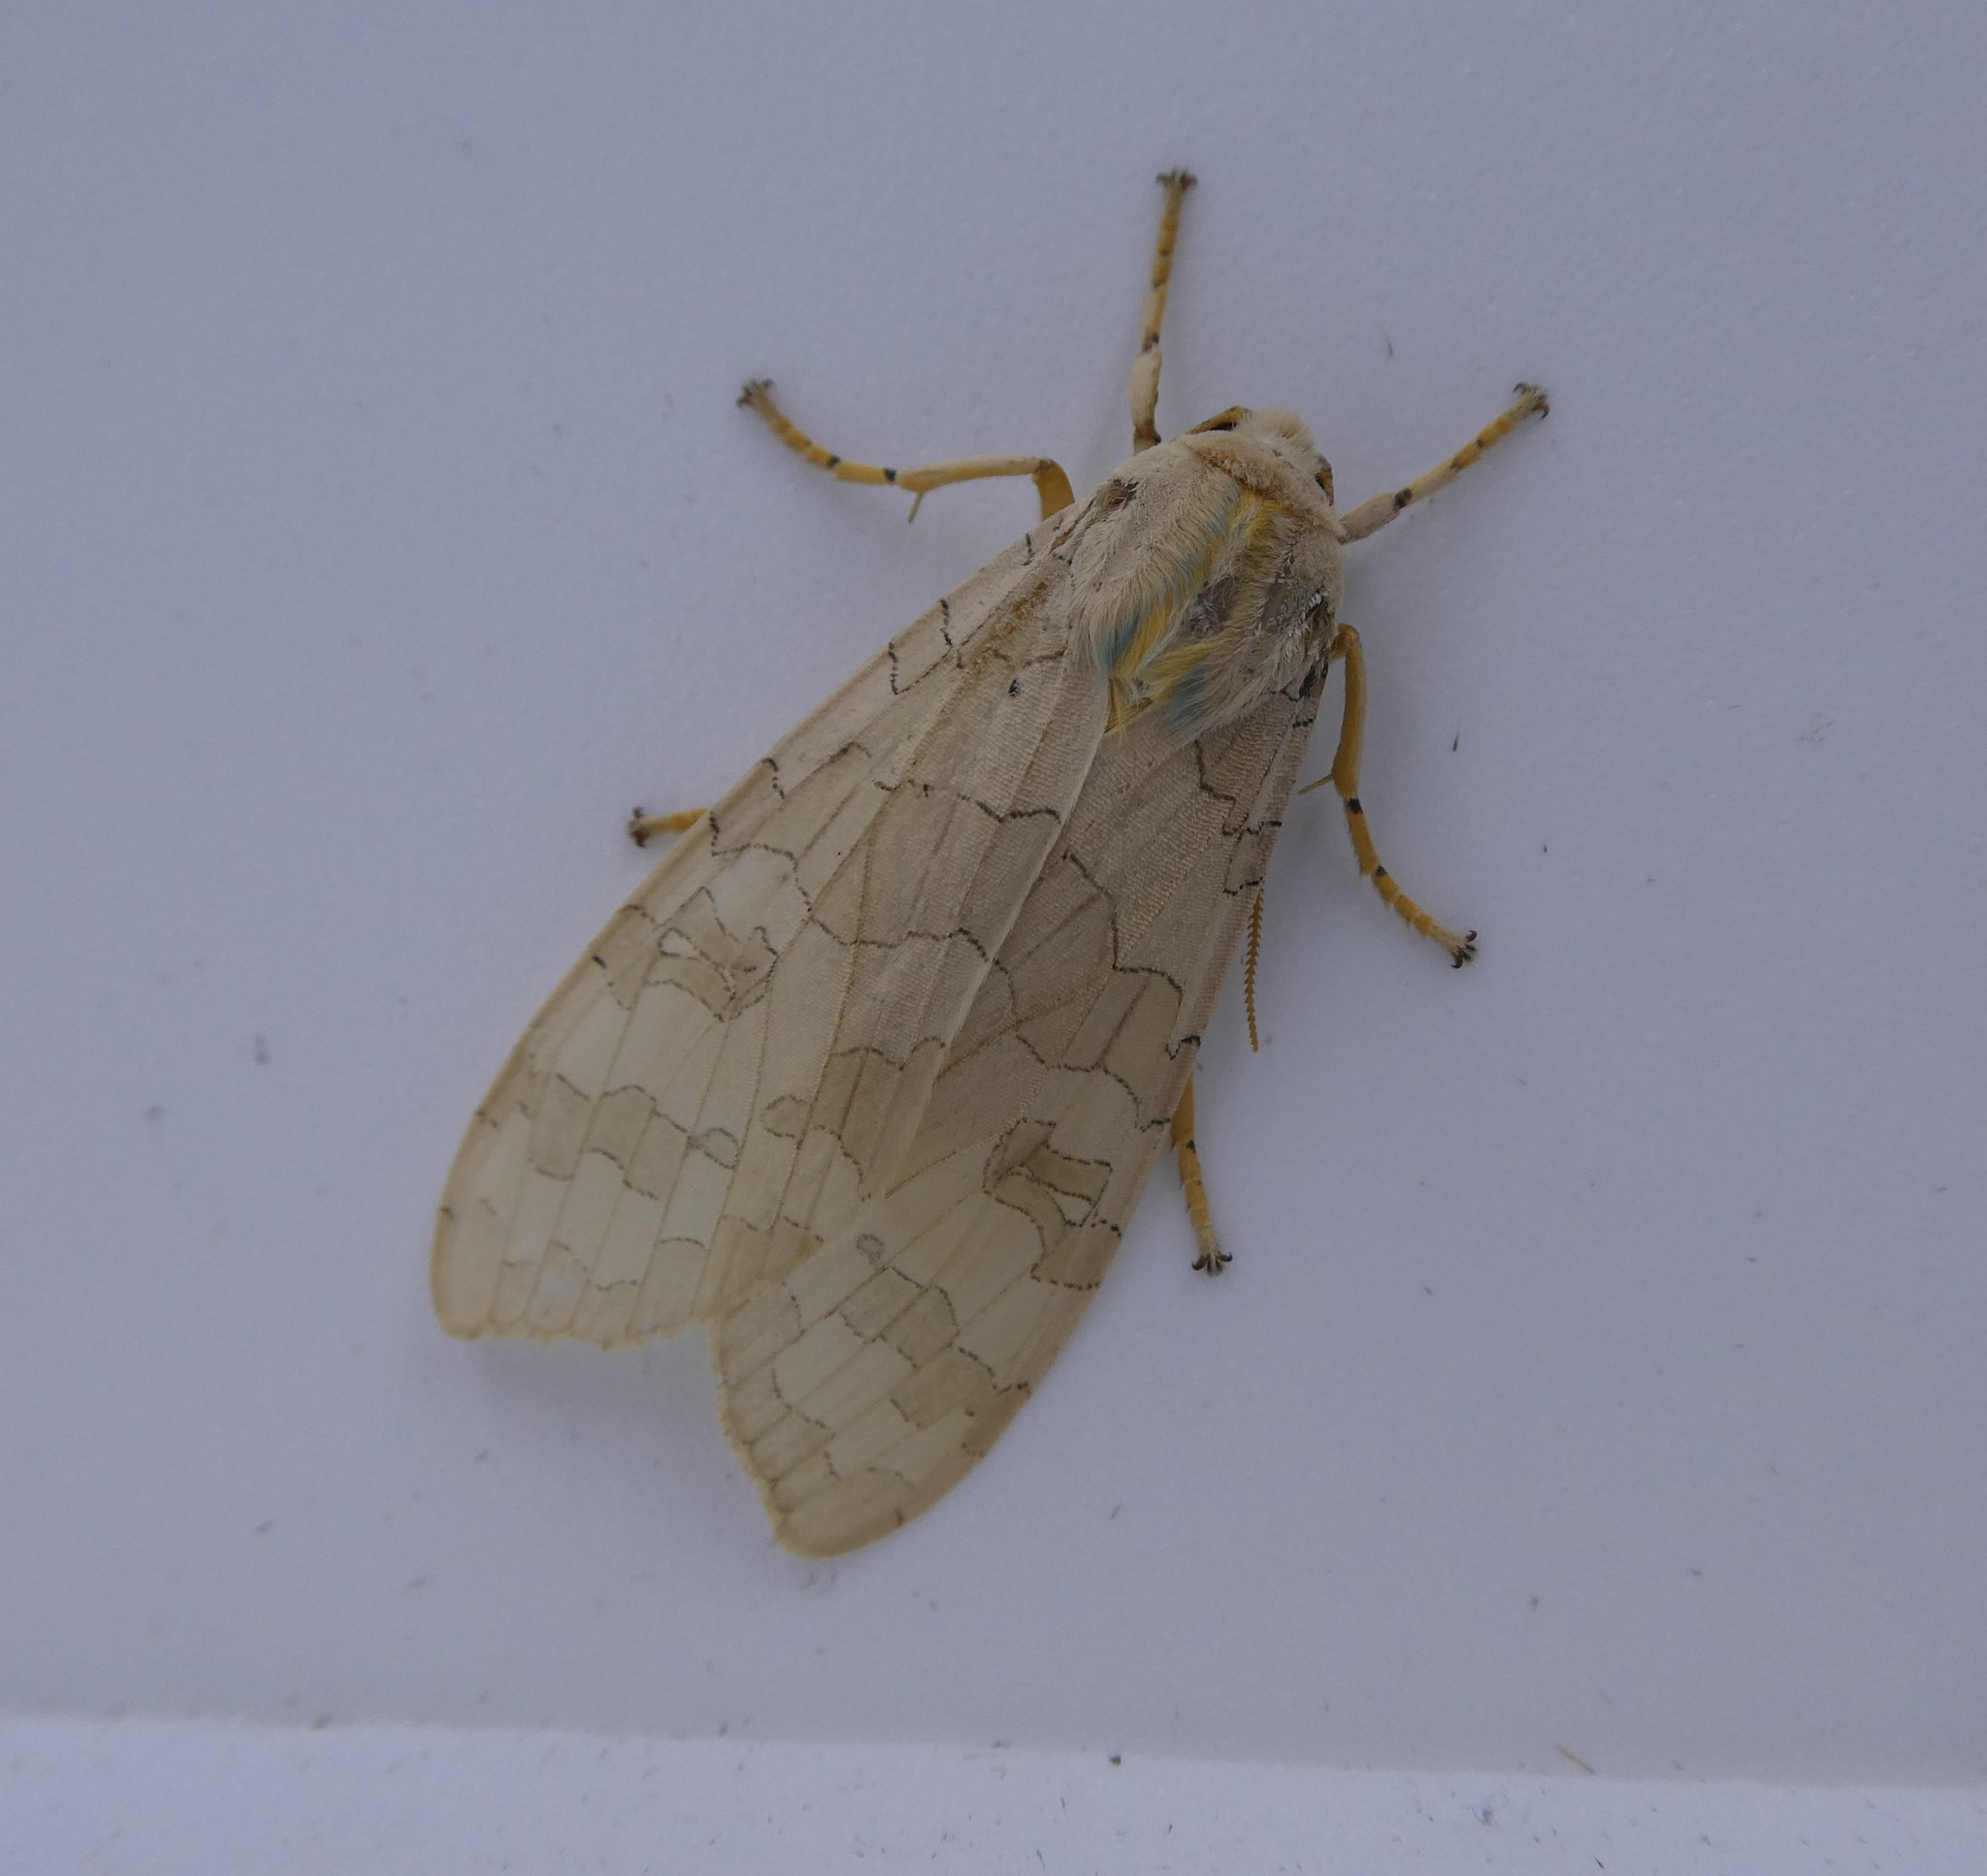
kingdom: Animalia
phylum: Arthropoda
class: Insecta
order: Lepidoptera
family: Erebidae
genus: Halysidota
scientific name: Halysidota tessellaris
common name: Banded tussock moth
